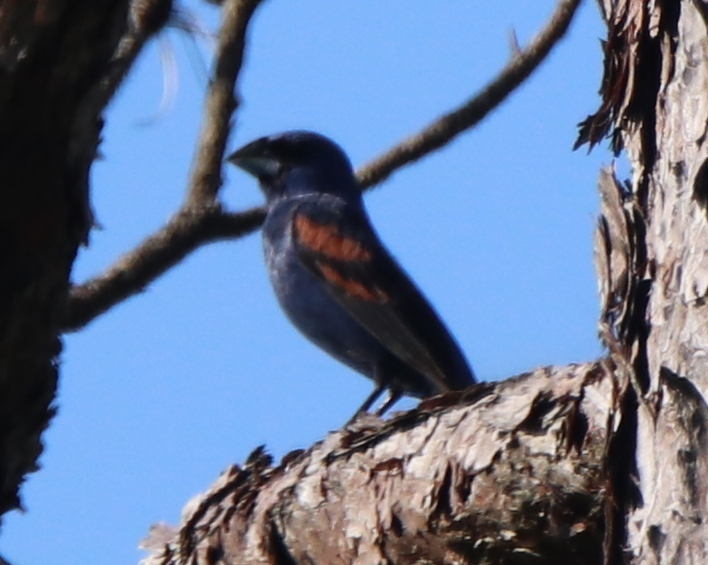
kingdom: Animalia
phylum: Chordata
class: Aves
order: Passeriformes
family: Cardinalidae
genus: Passerina
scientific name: Passerina caerulea
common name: Blue grosbeak
